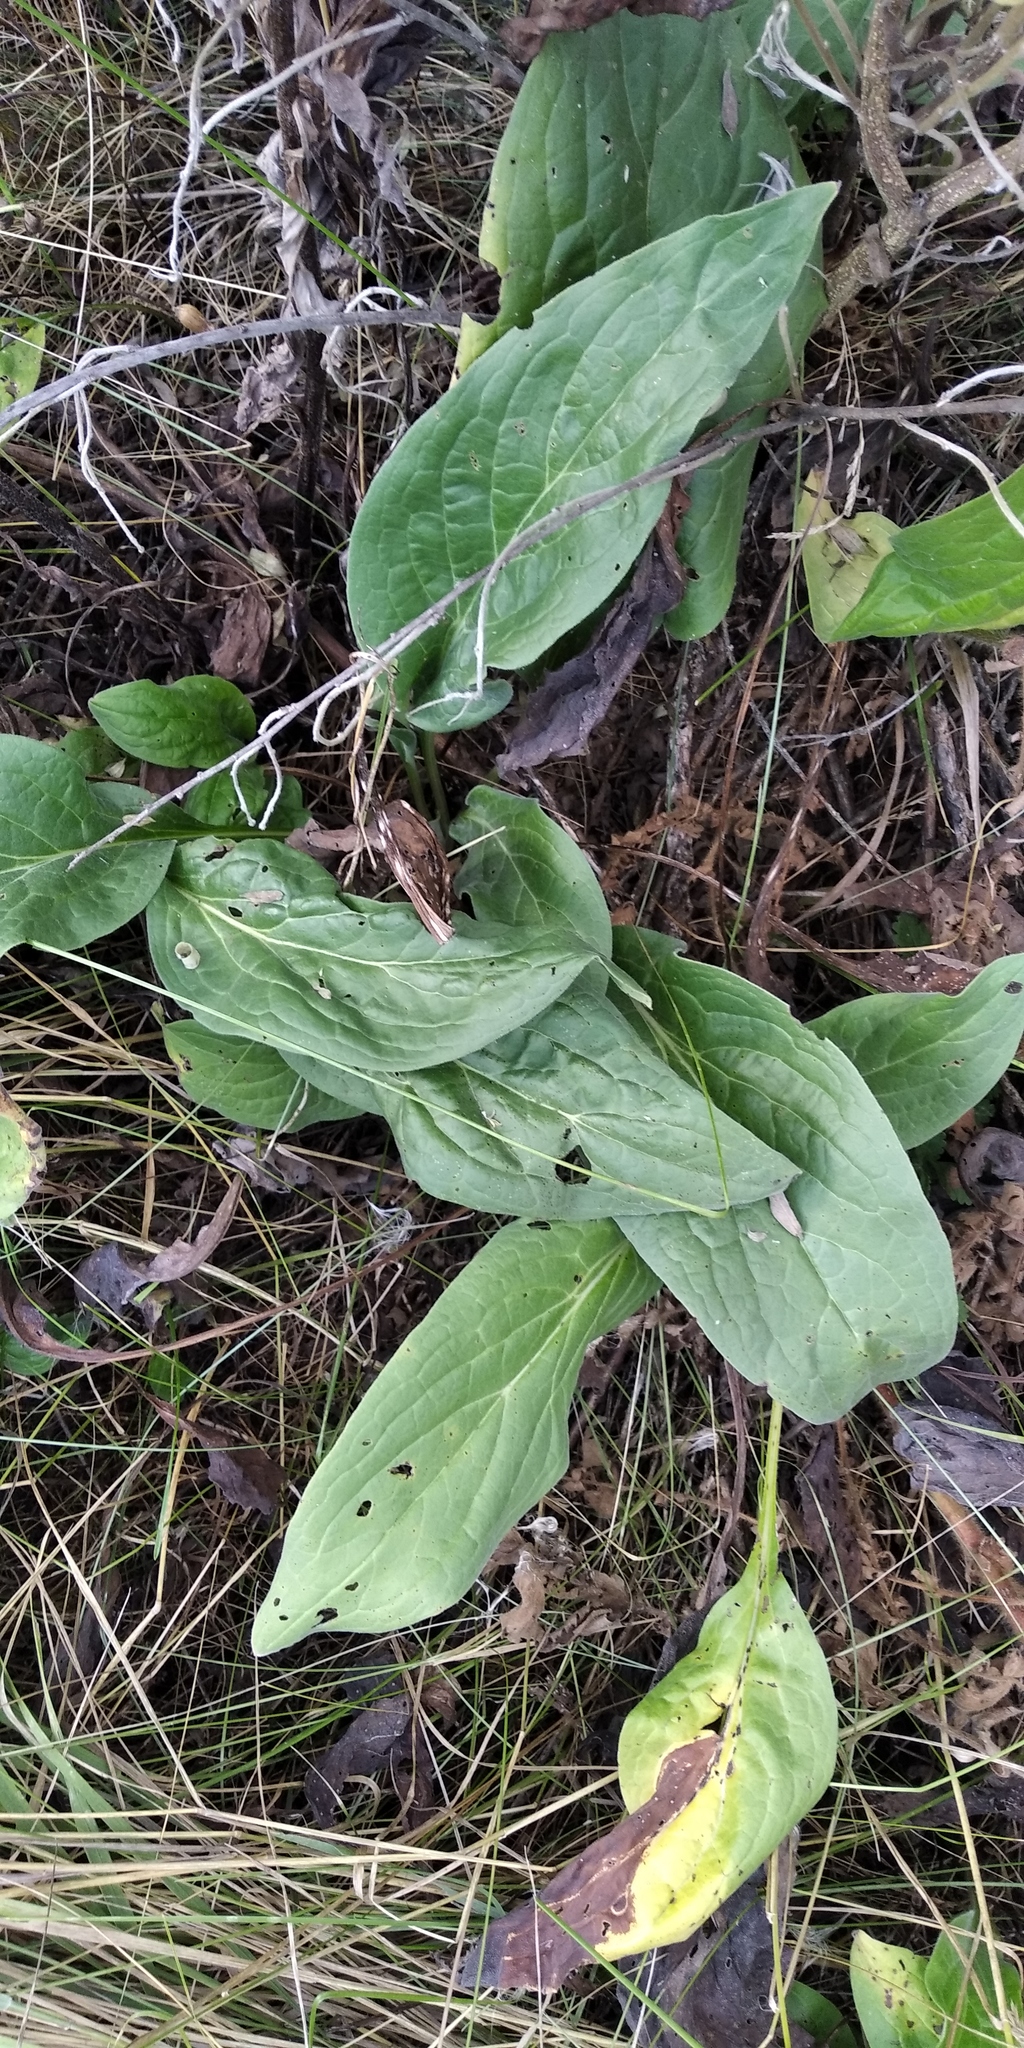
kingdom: Plantae
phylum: Tracheophyta
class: Magnoliopsida
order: Boraginales
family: Boraginaceae
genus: Cynoglossum
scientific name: Cynoglossum officinale
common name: Hound's-tongue
